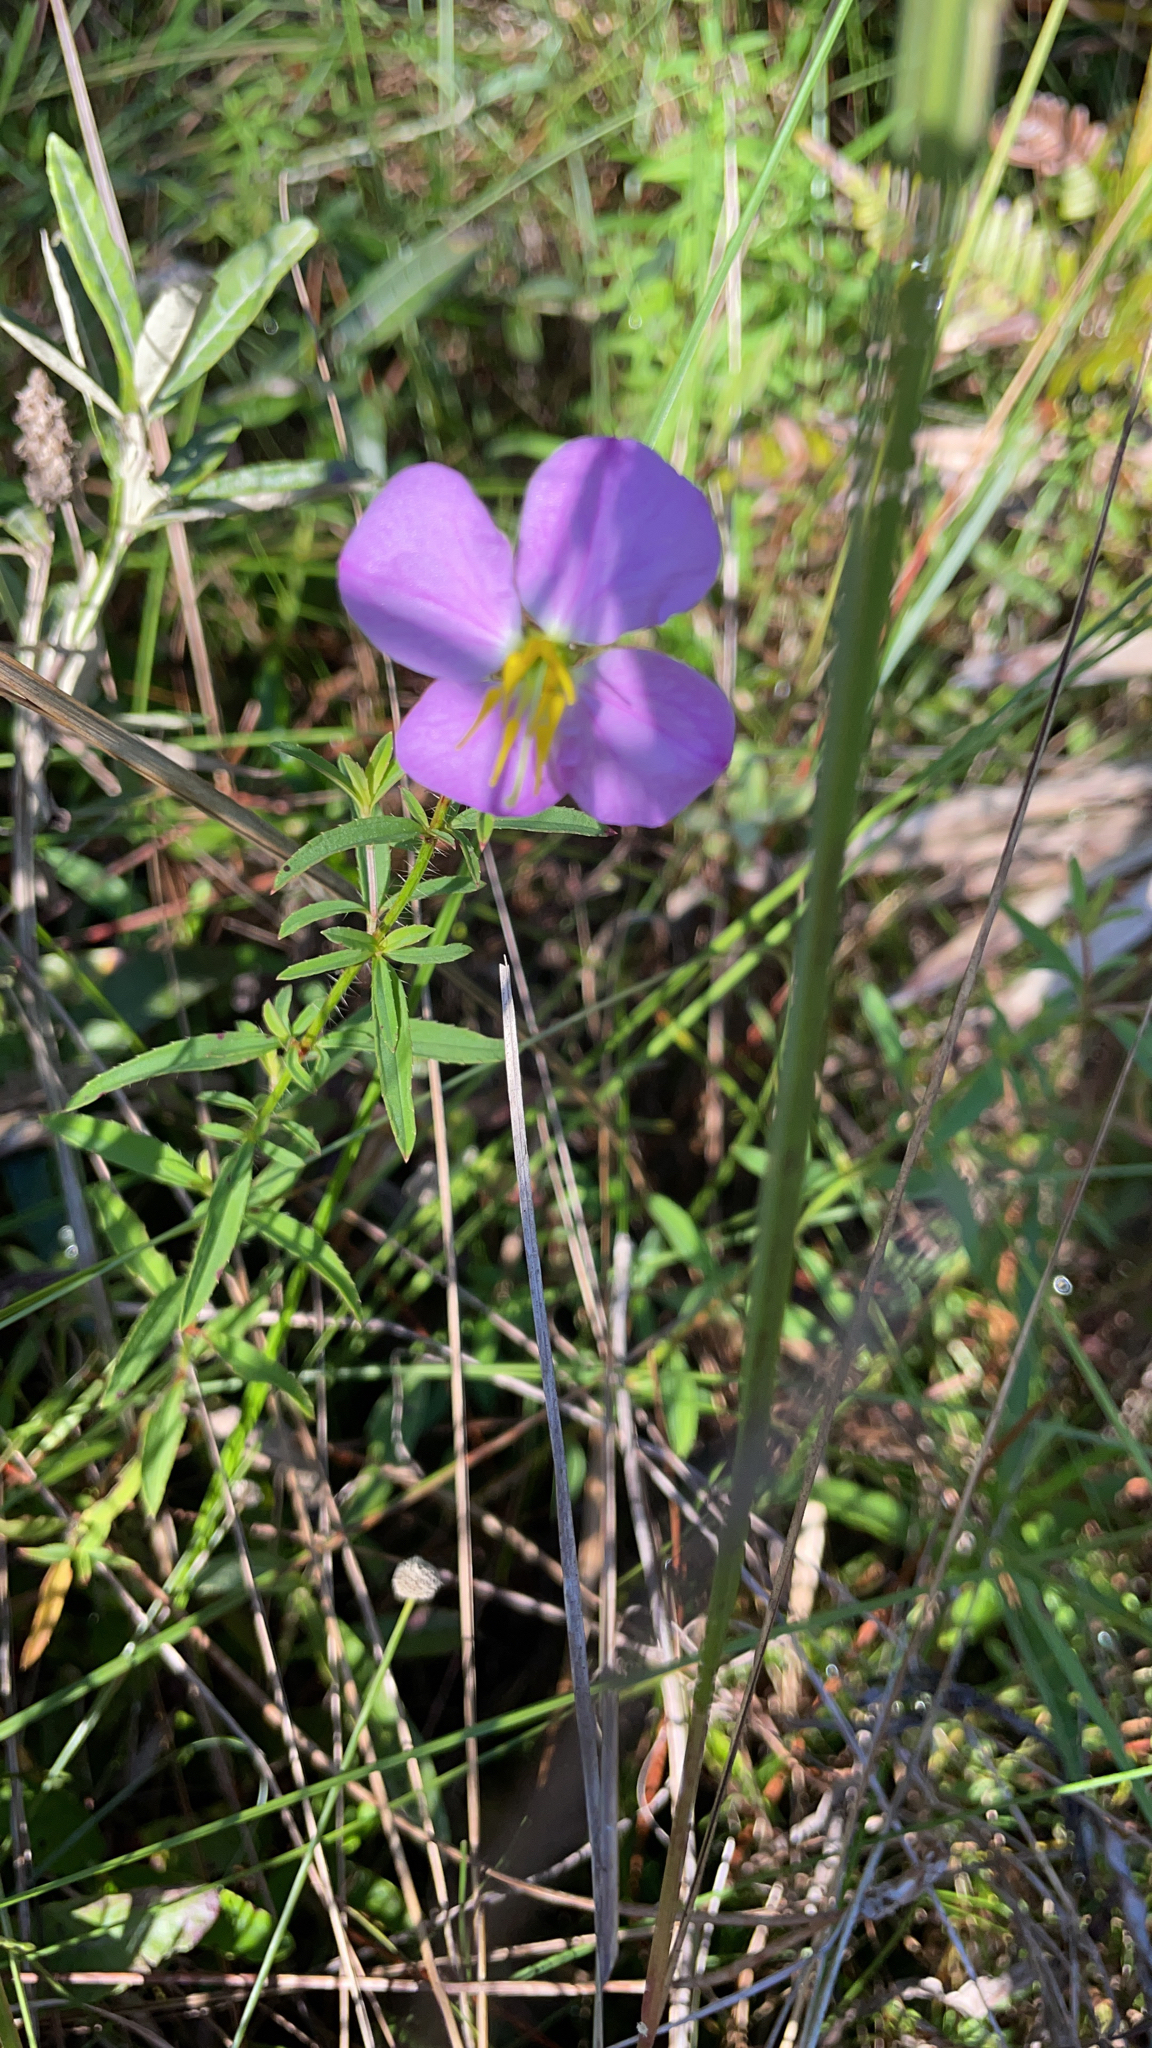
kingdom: Plantae
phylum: Tracheophyta
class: Magnoliopsida
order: Myrtales
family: Melastomataceae
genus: Rhexia
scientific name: Rhexia mariana
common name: Dull meadow-pitcher
